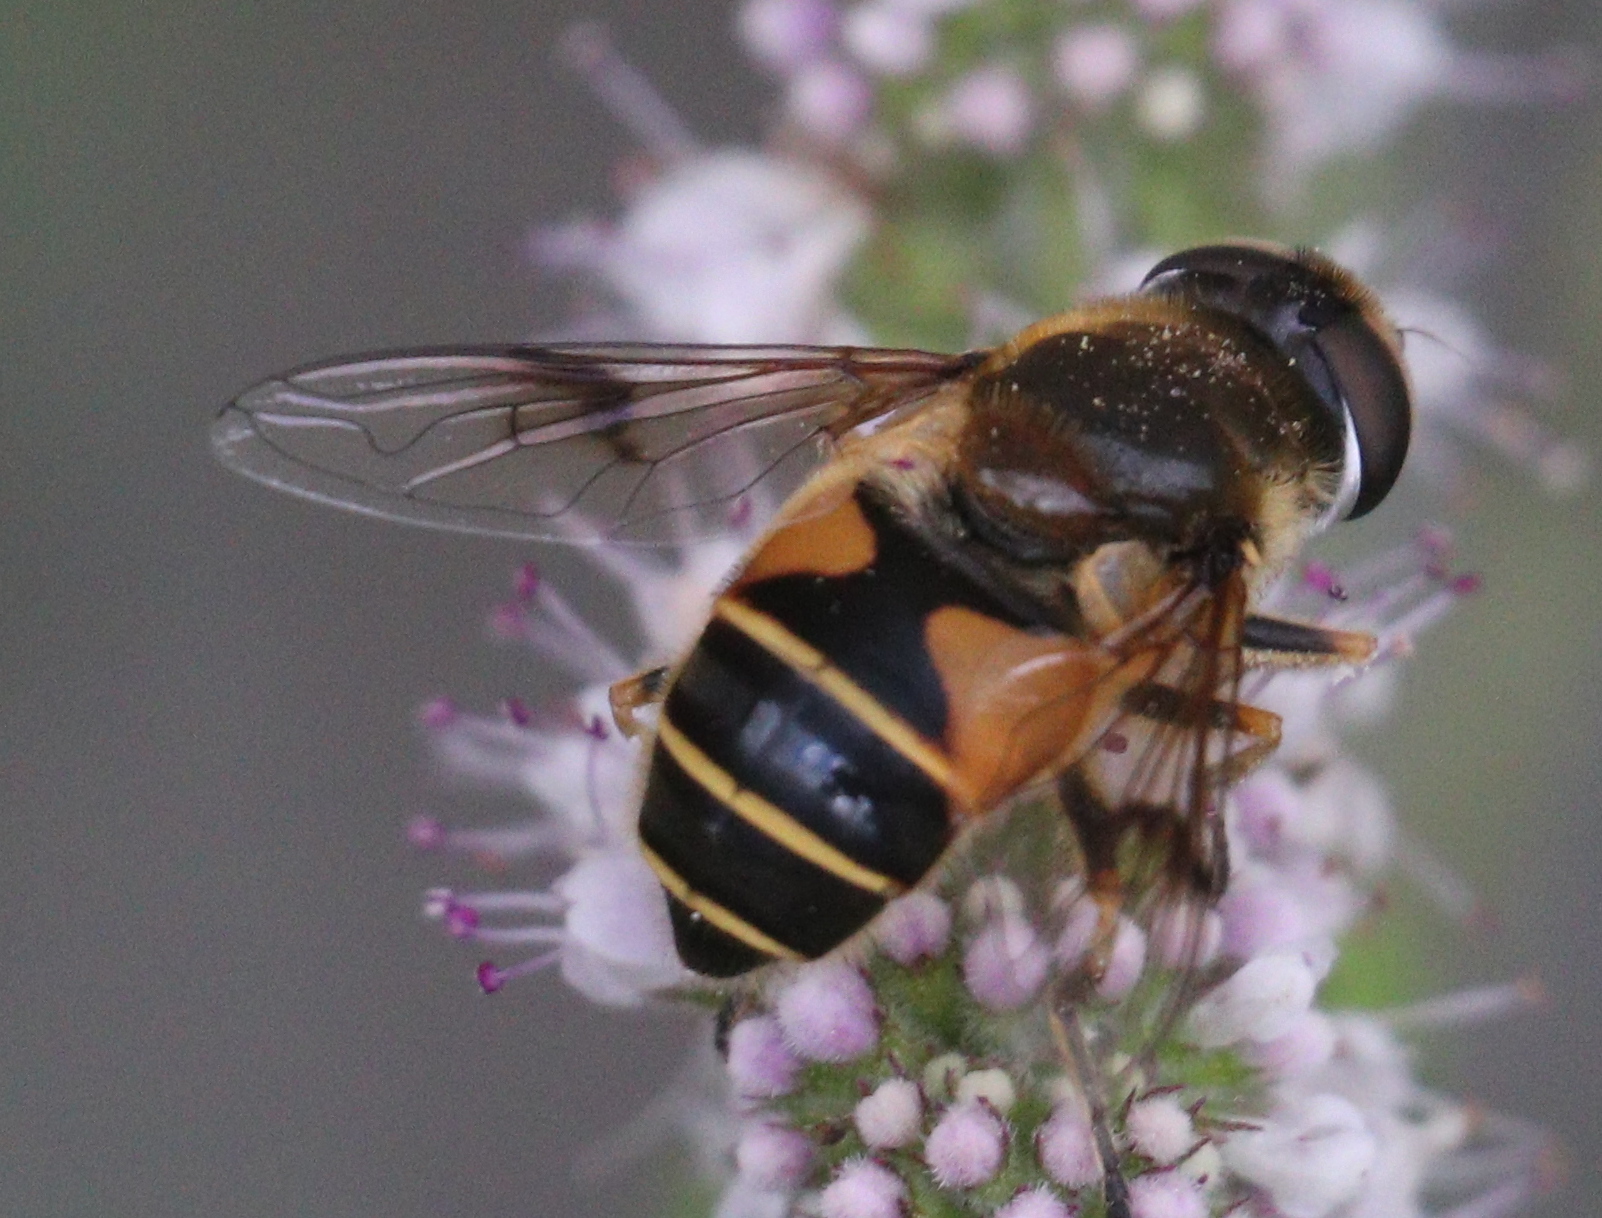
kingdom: Animalia
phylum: Arthropoda
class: Insecta
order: Diptera
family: Syrphidae
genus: Cheilosia
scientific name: Cheilosia morio
